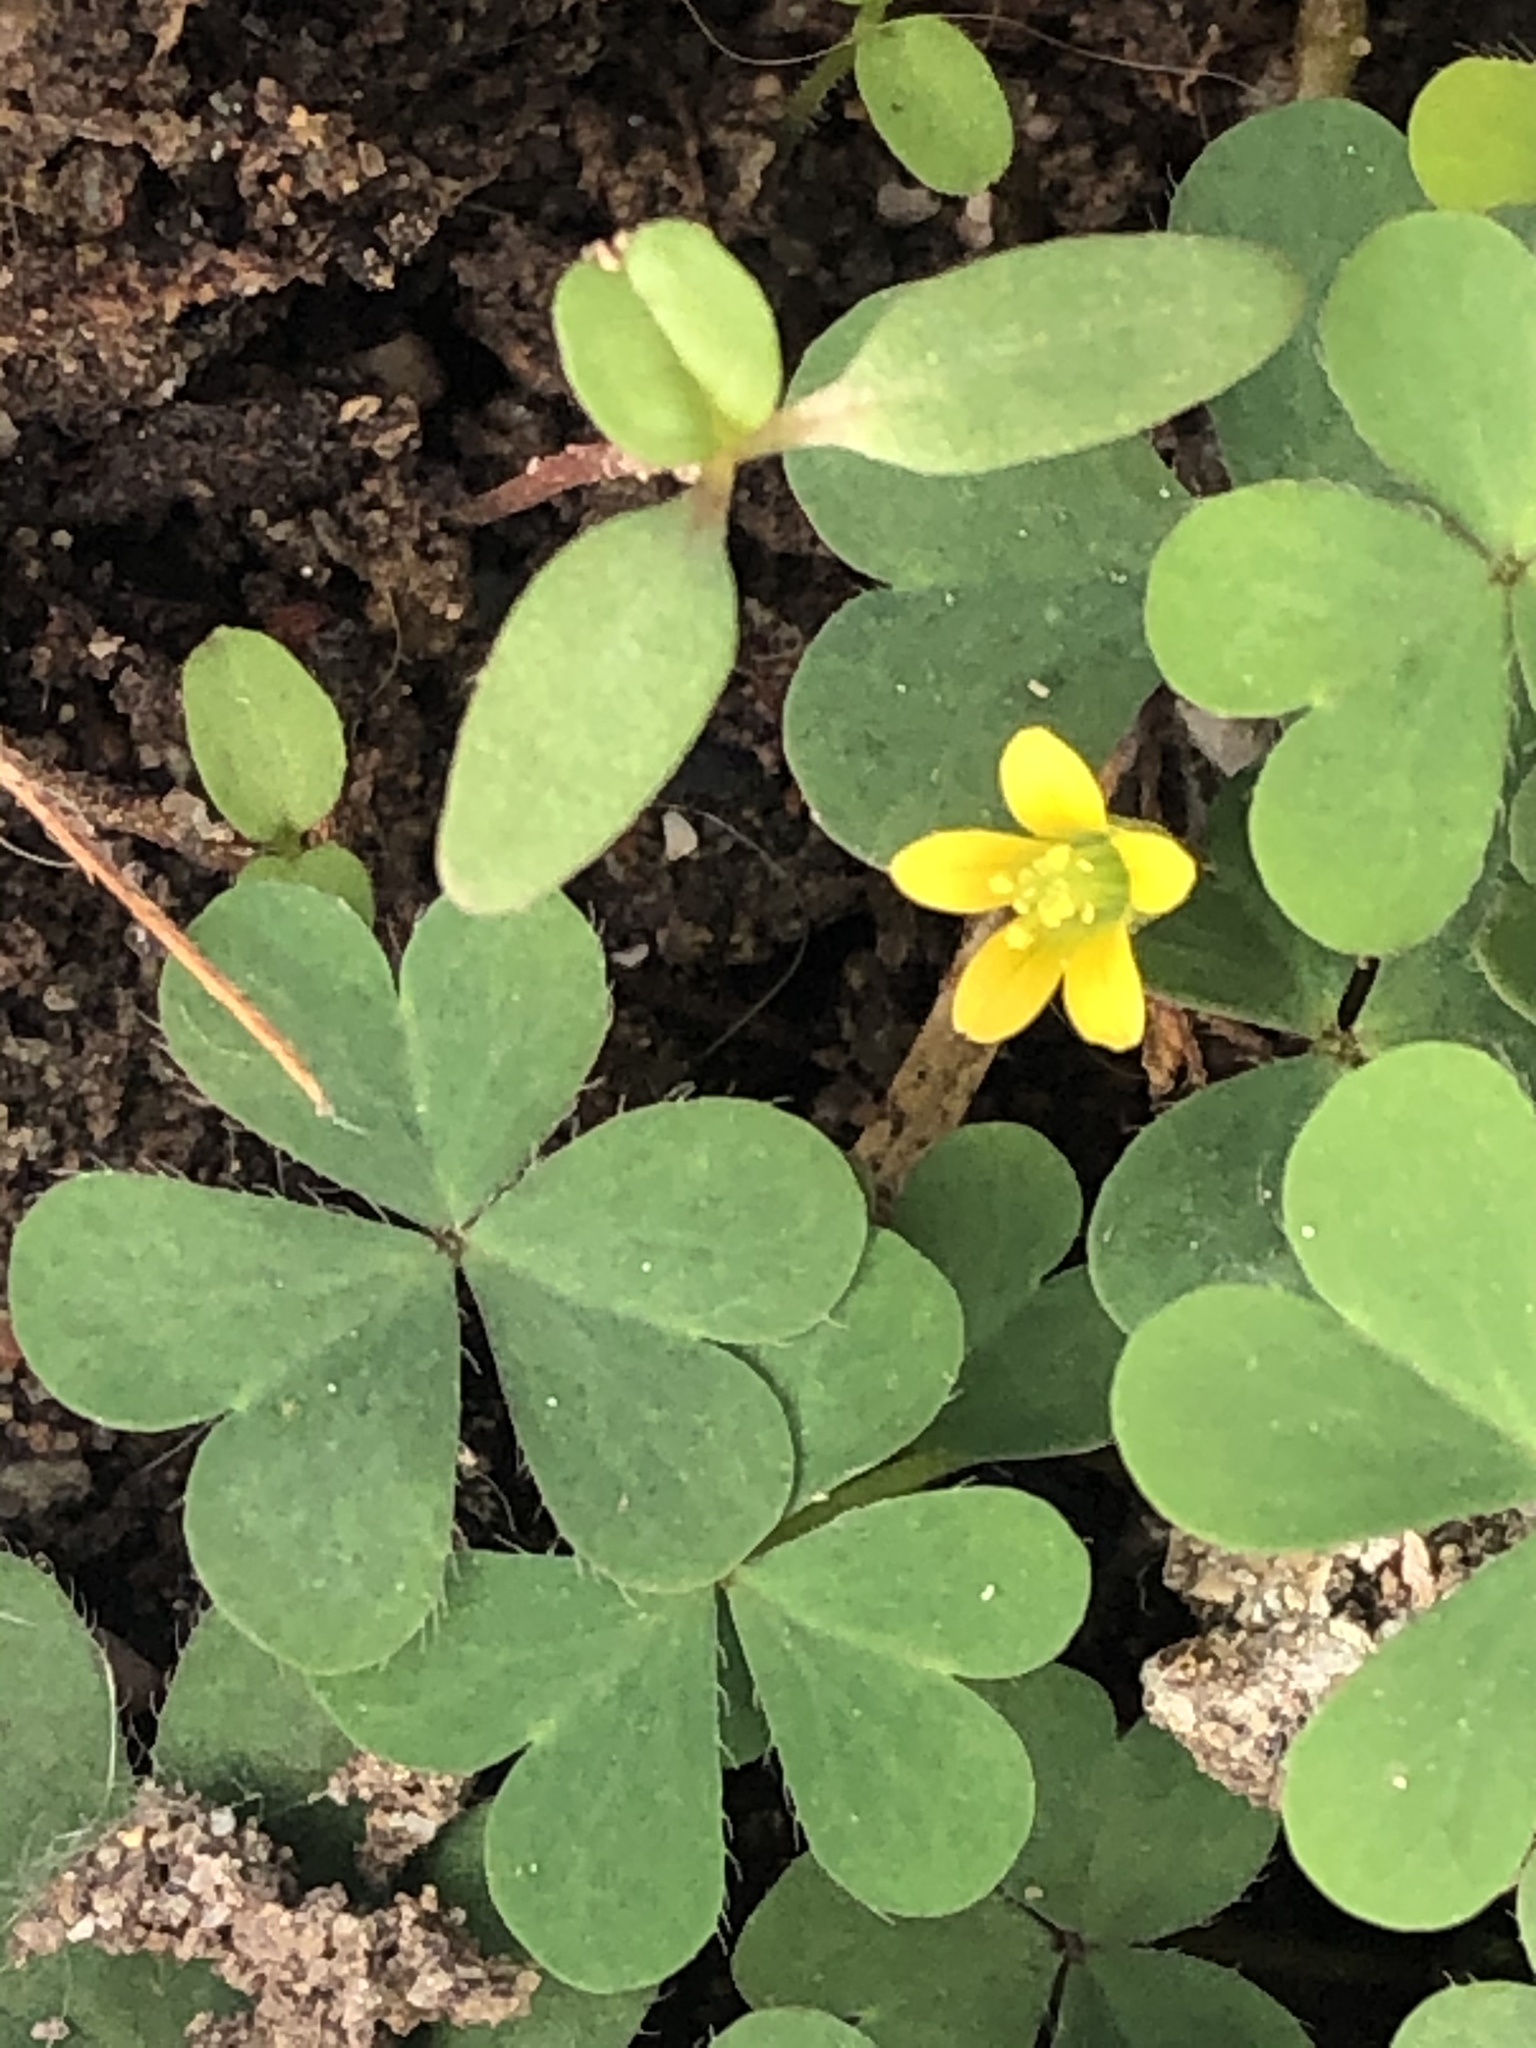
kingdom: Plantae
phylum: Tracheophyta
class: Magnoliopsida
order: Oxalidales
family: Oxalidaceae
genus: Oxalis
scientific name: Oxalis corniculata
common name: Procumbent yellow-sorrel
